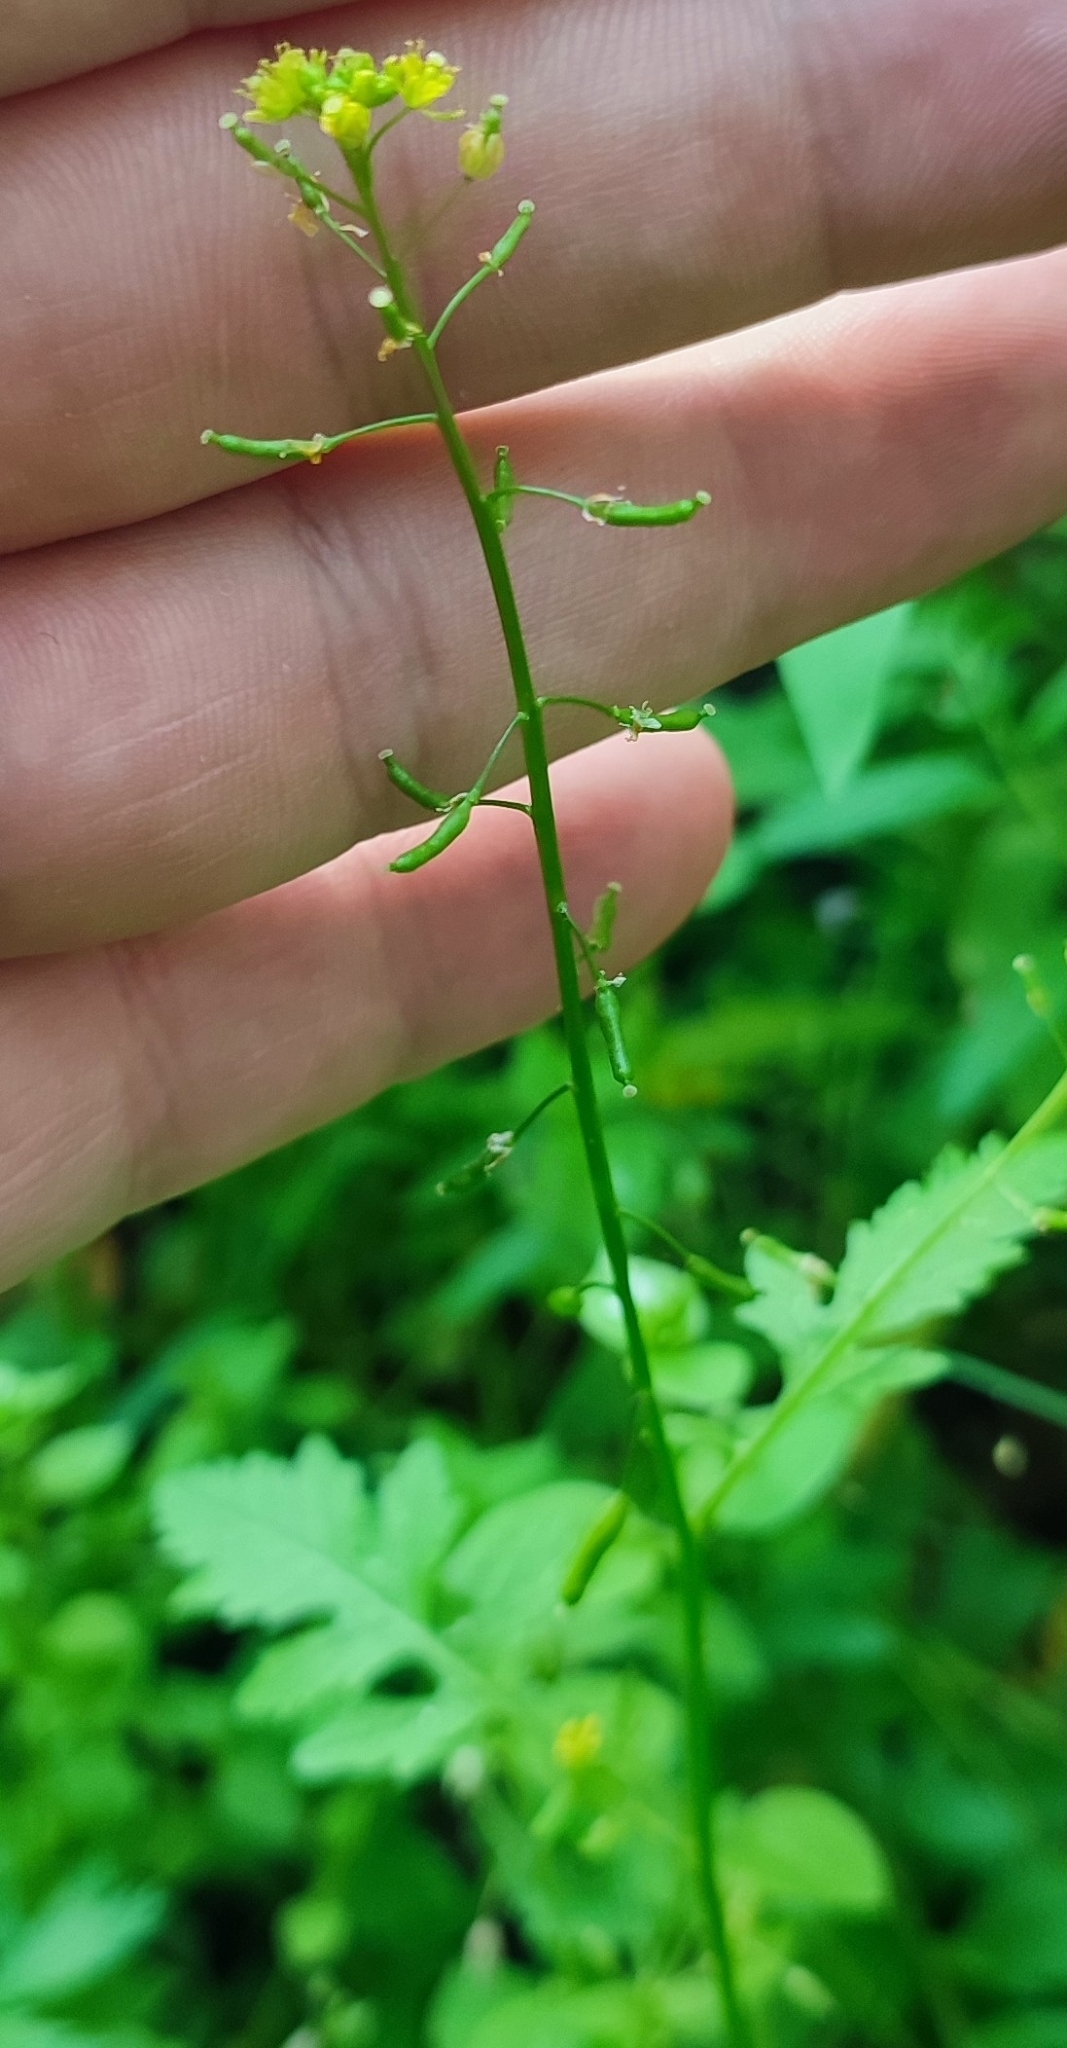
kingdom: Plantae
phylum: Tracheophyta
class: Magnoliopsida
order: Brassicales
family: Brassicaceae
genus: Rorippa
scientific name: Rorippa palustris
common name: Marsh yellow-cress
